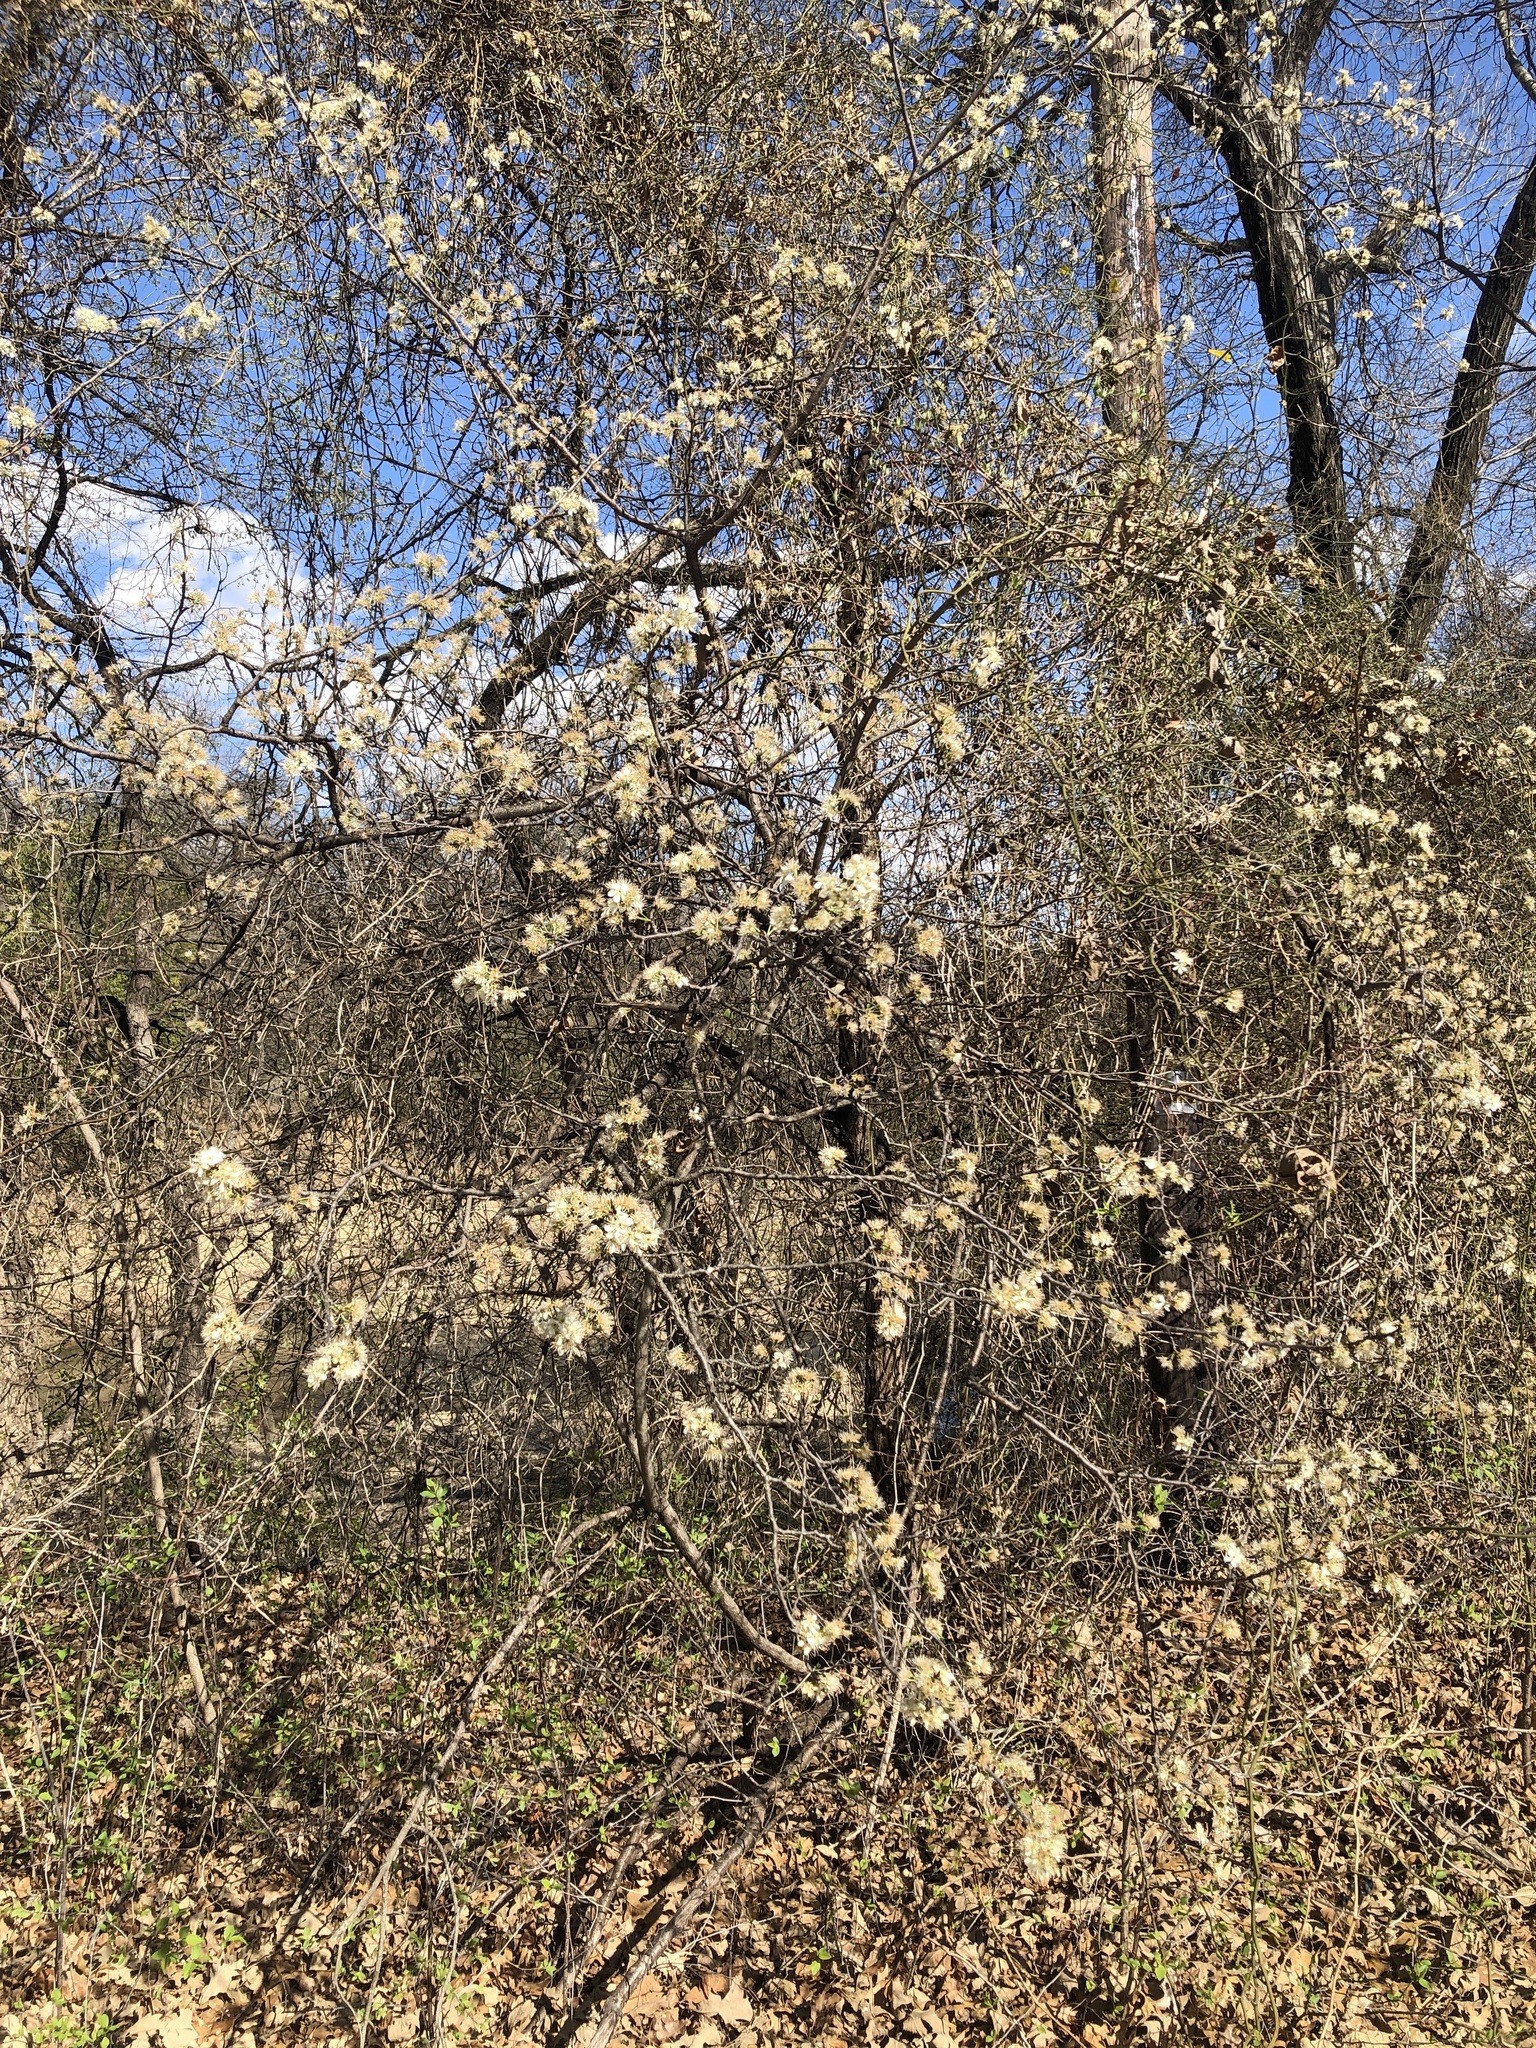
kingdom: Plantae
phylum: Tracheophyta
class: Magnoliopsida
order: Rosales
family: Rosaceae
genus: Prunus
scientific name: Prunus mexicana
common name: Mexican plum
